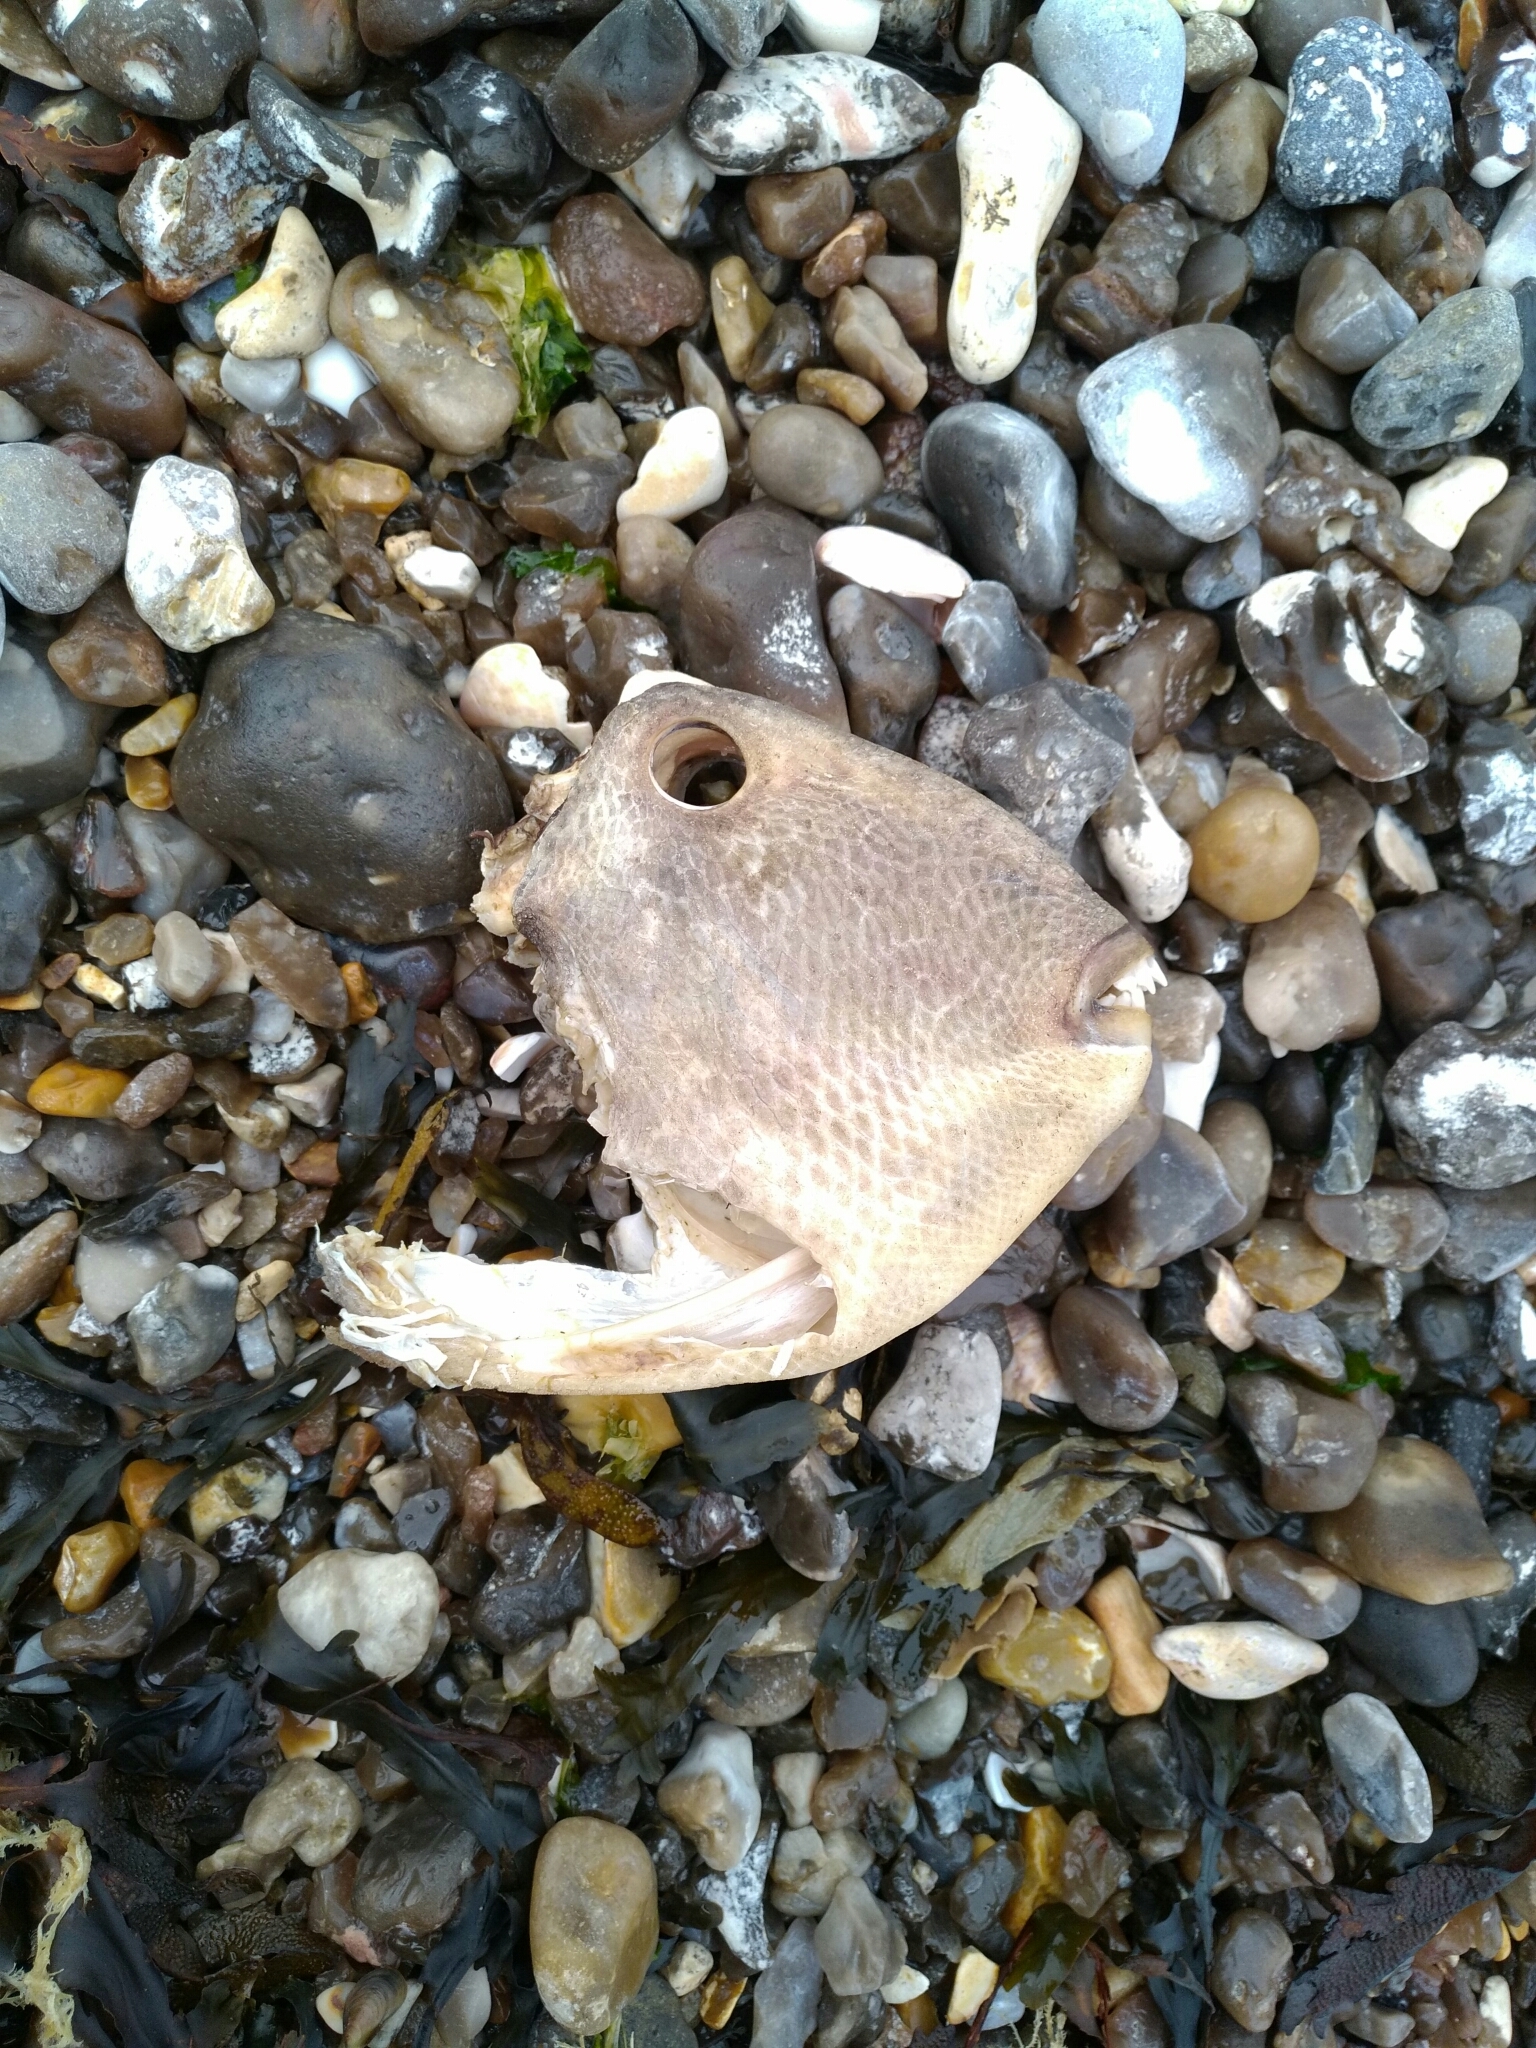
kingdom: Animalia
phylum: Chordata
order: Tetraodontiformes
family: Balistidae
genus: Balistes
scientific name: Balistes capriscus
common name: Grey triggerfish
